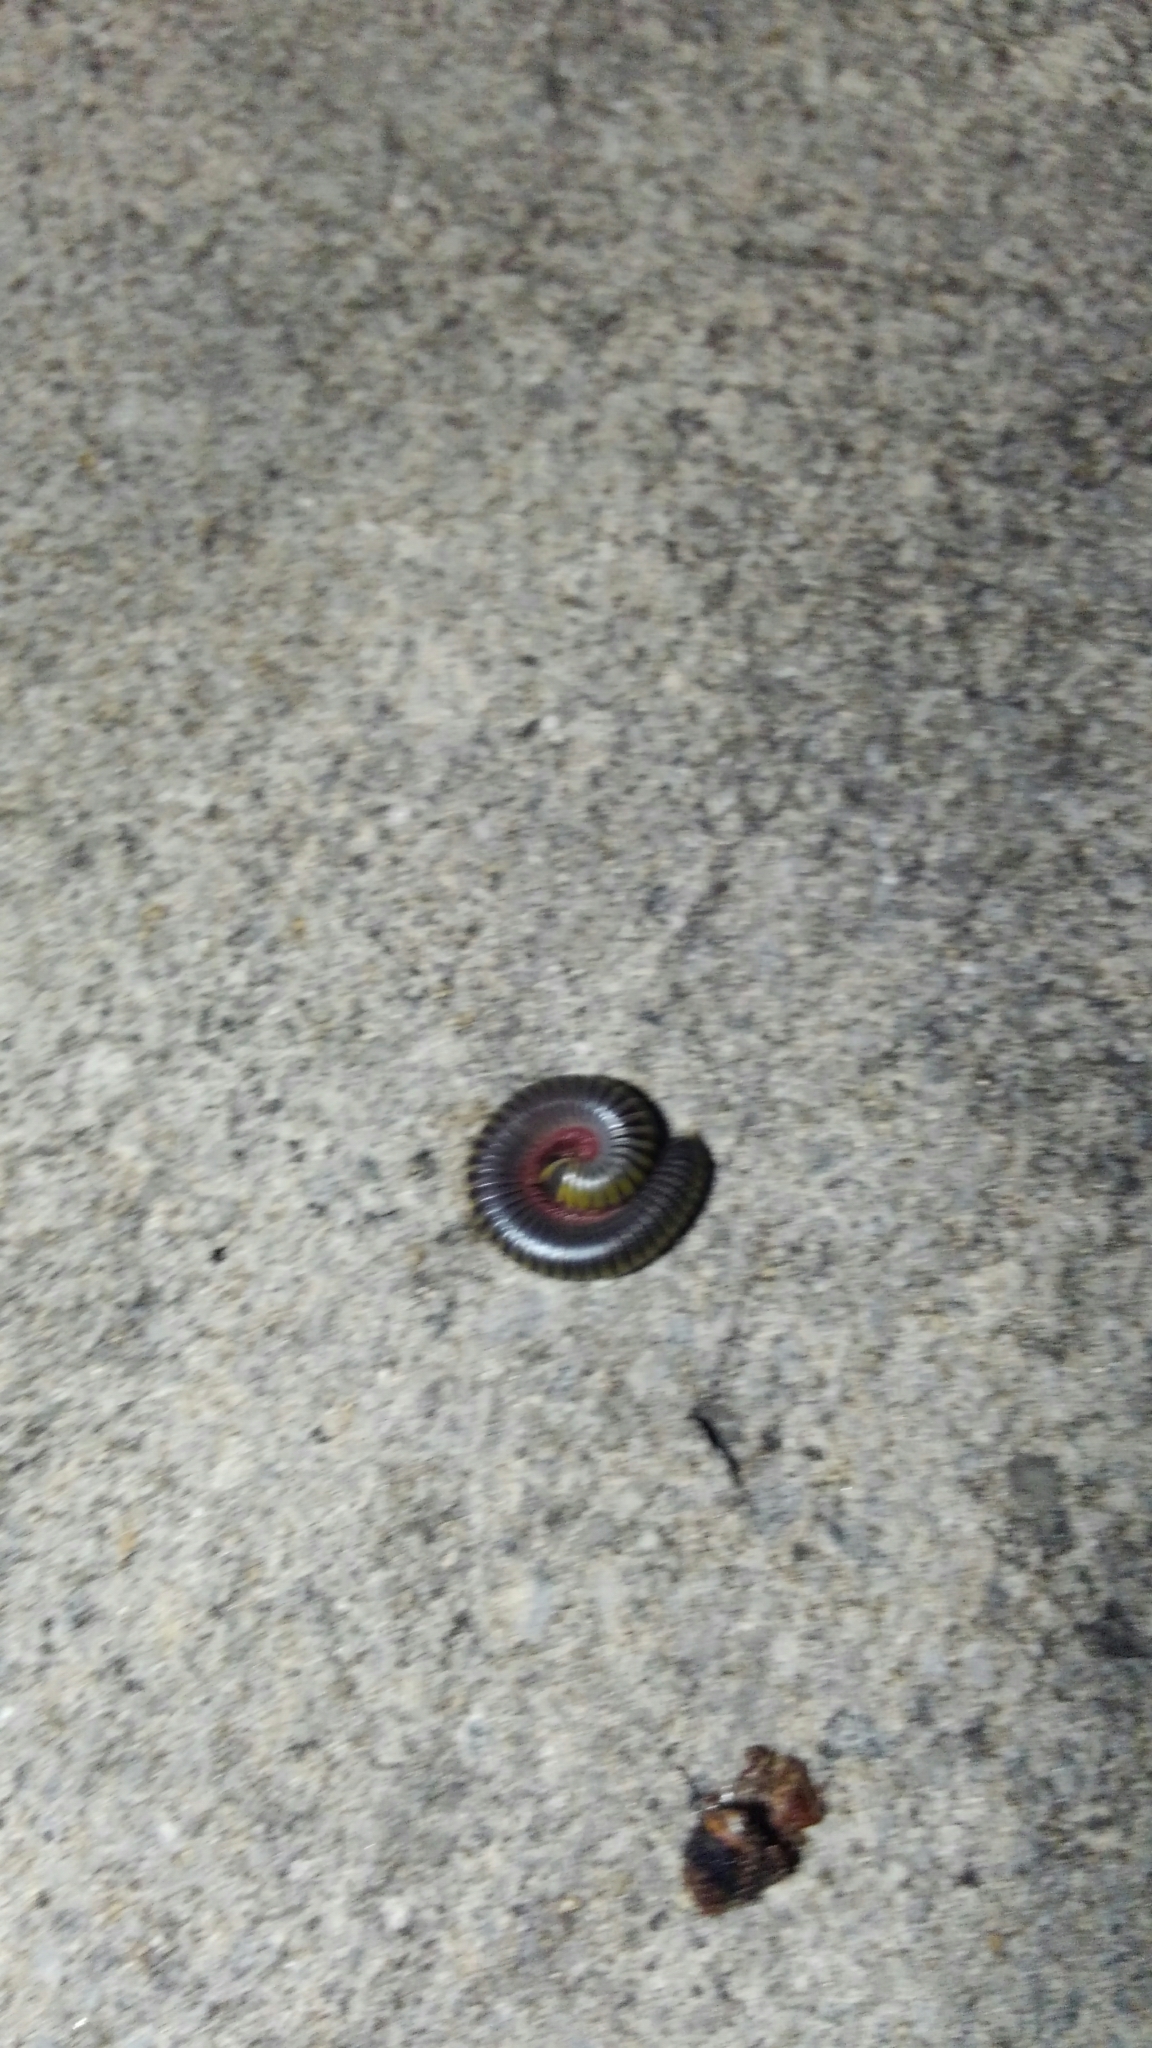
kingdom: Animalia
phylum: Arthropoda
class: Diplopoda
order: Spirobolida
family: Rhinocricidae
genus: Anadenobolus
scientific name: Anadenobolus monilicornis
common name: Caribbean millipede
